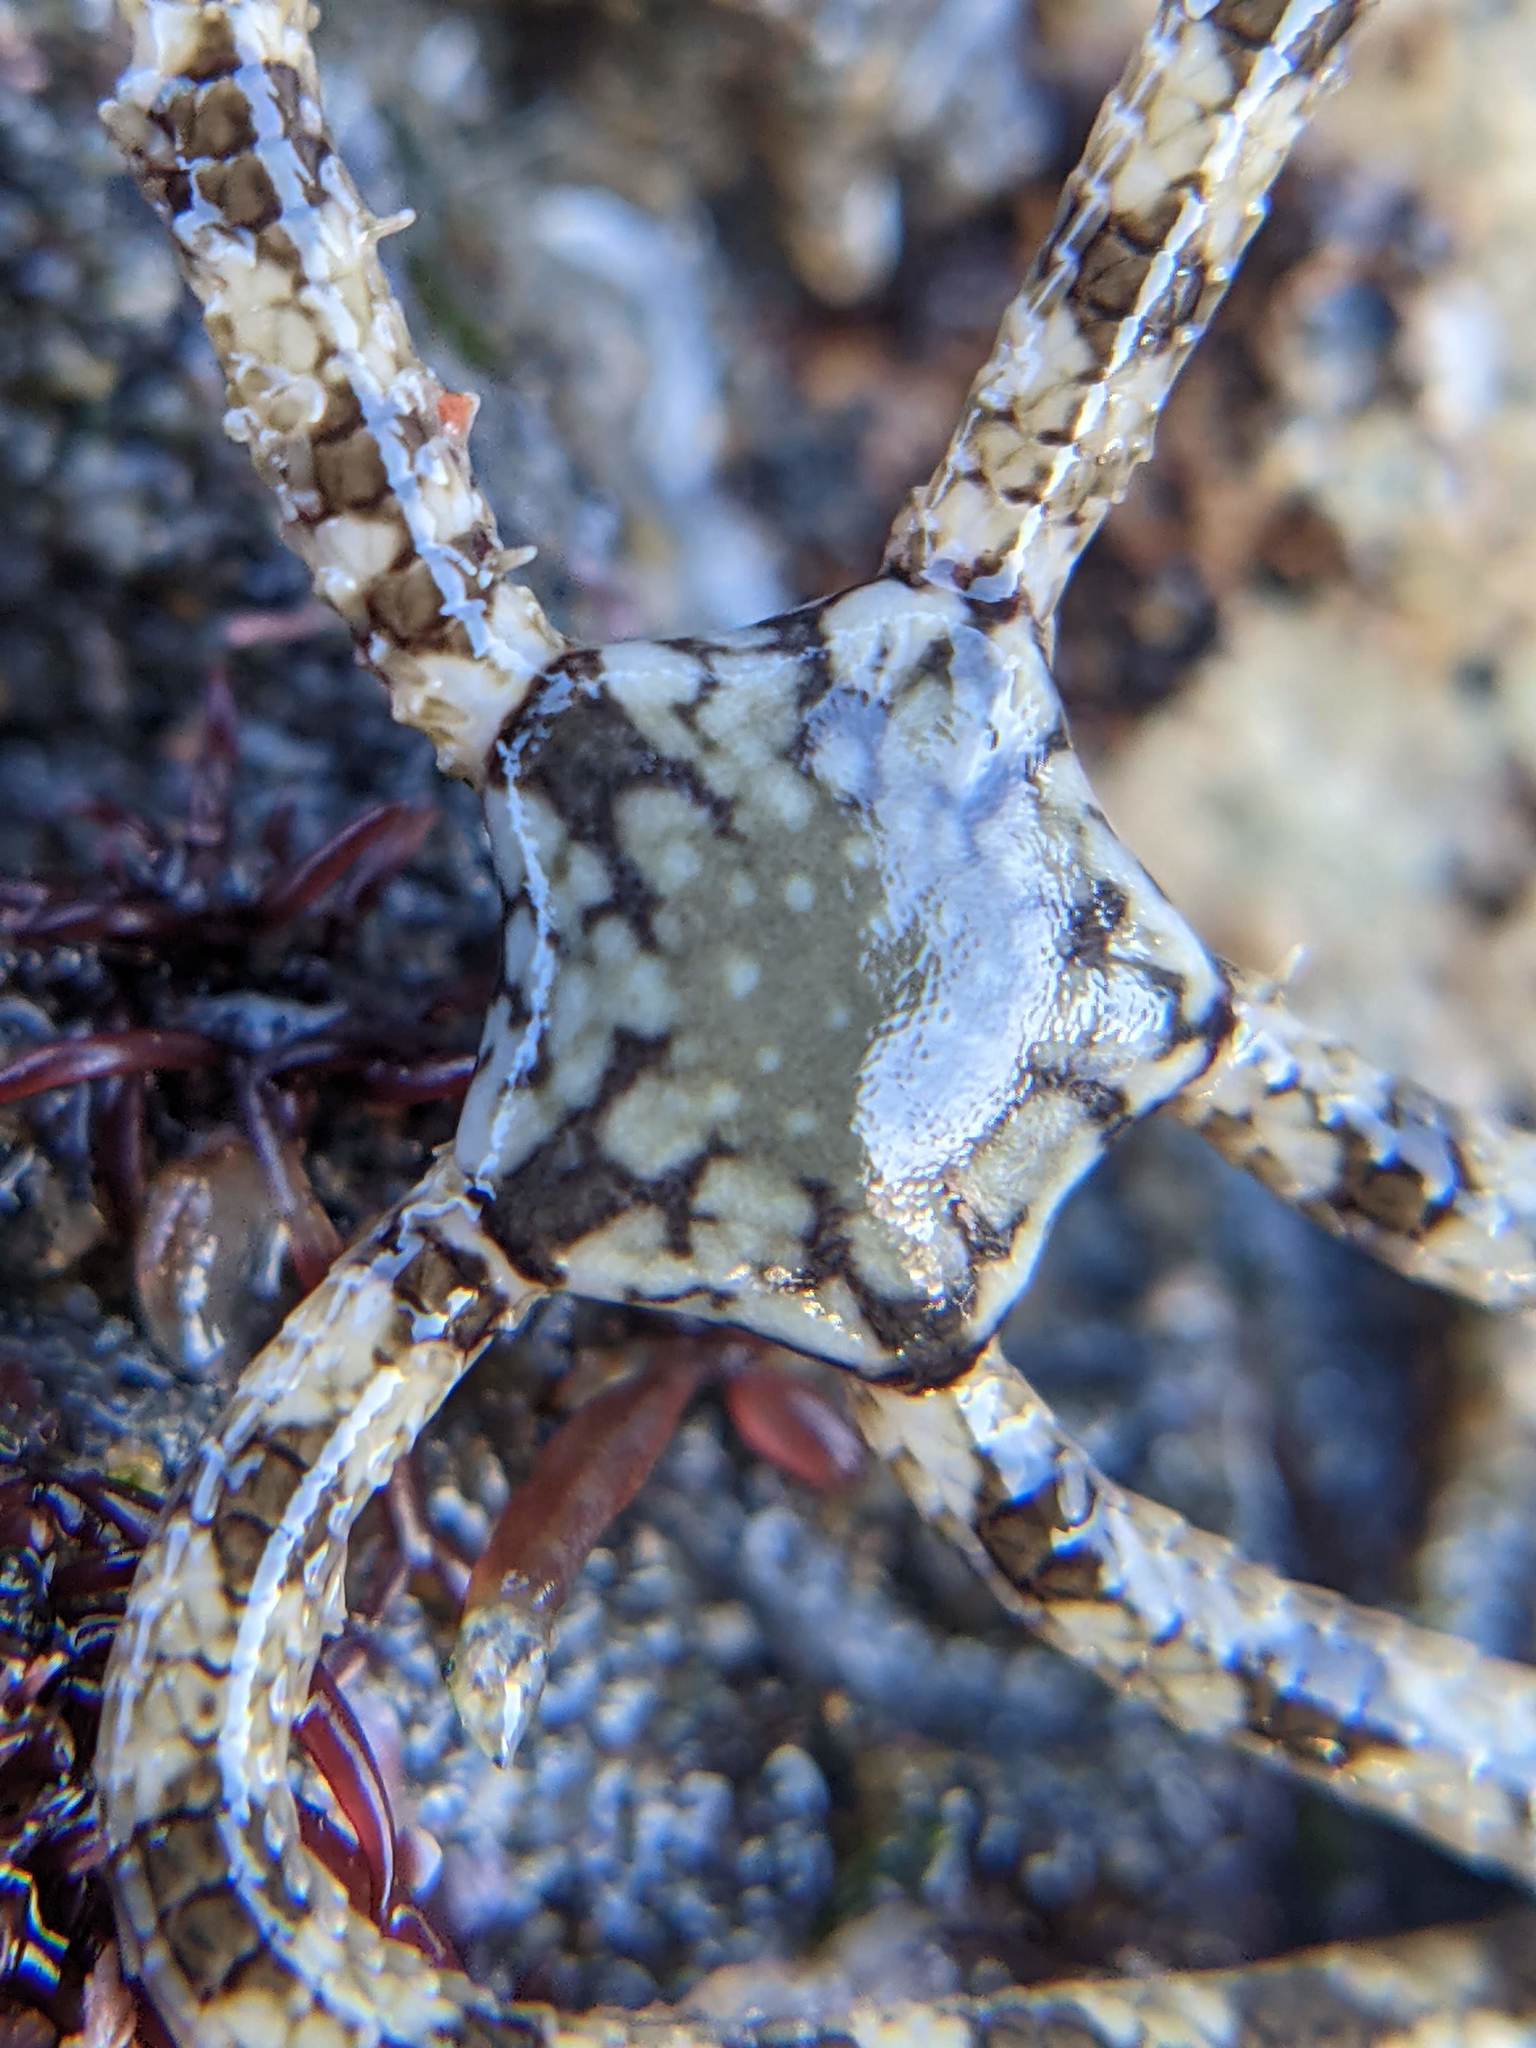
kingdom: Animalia
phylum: Echinodermata
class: Ophiuroidea
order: Amphilepidida
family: Ophionereididae
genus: Ophionereis
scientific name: Ophionereis annulata
